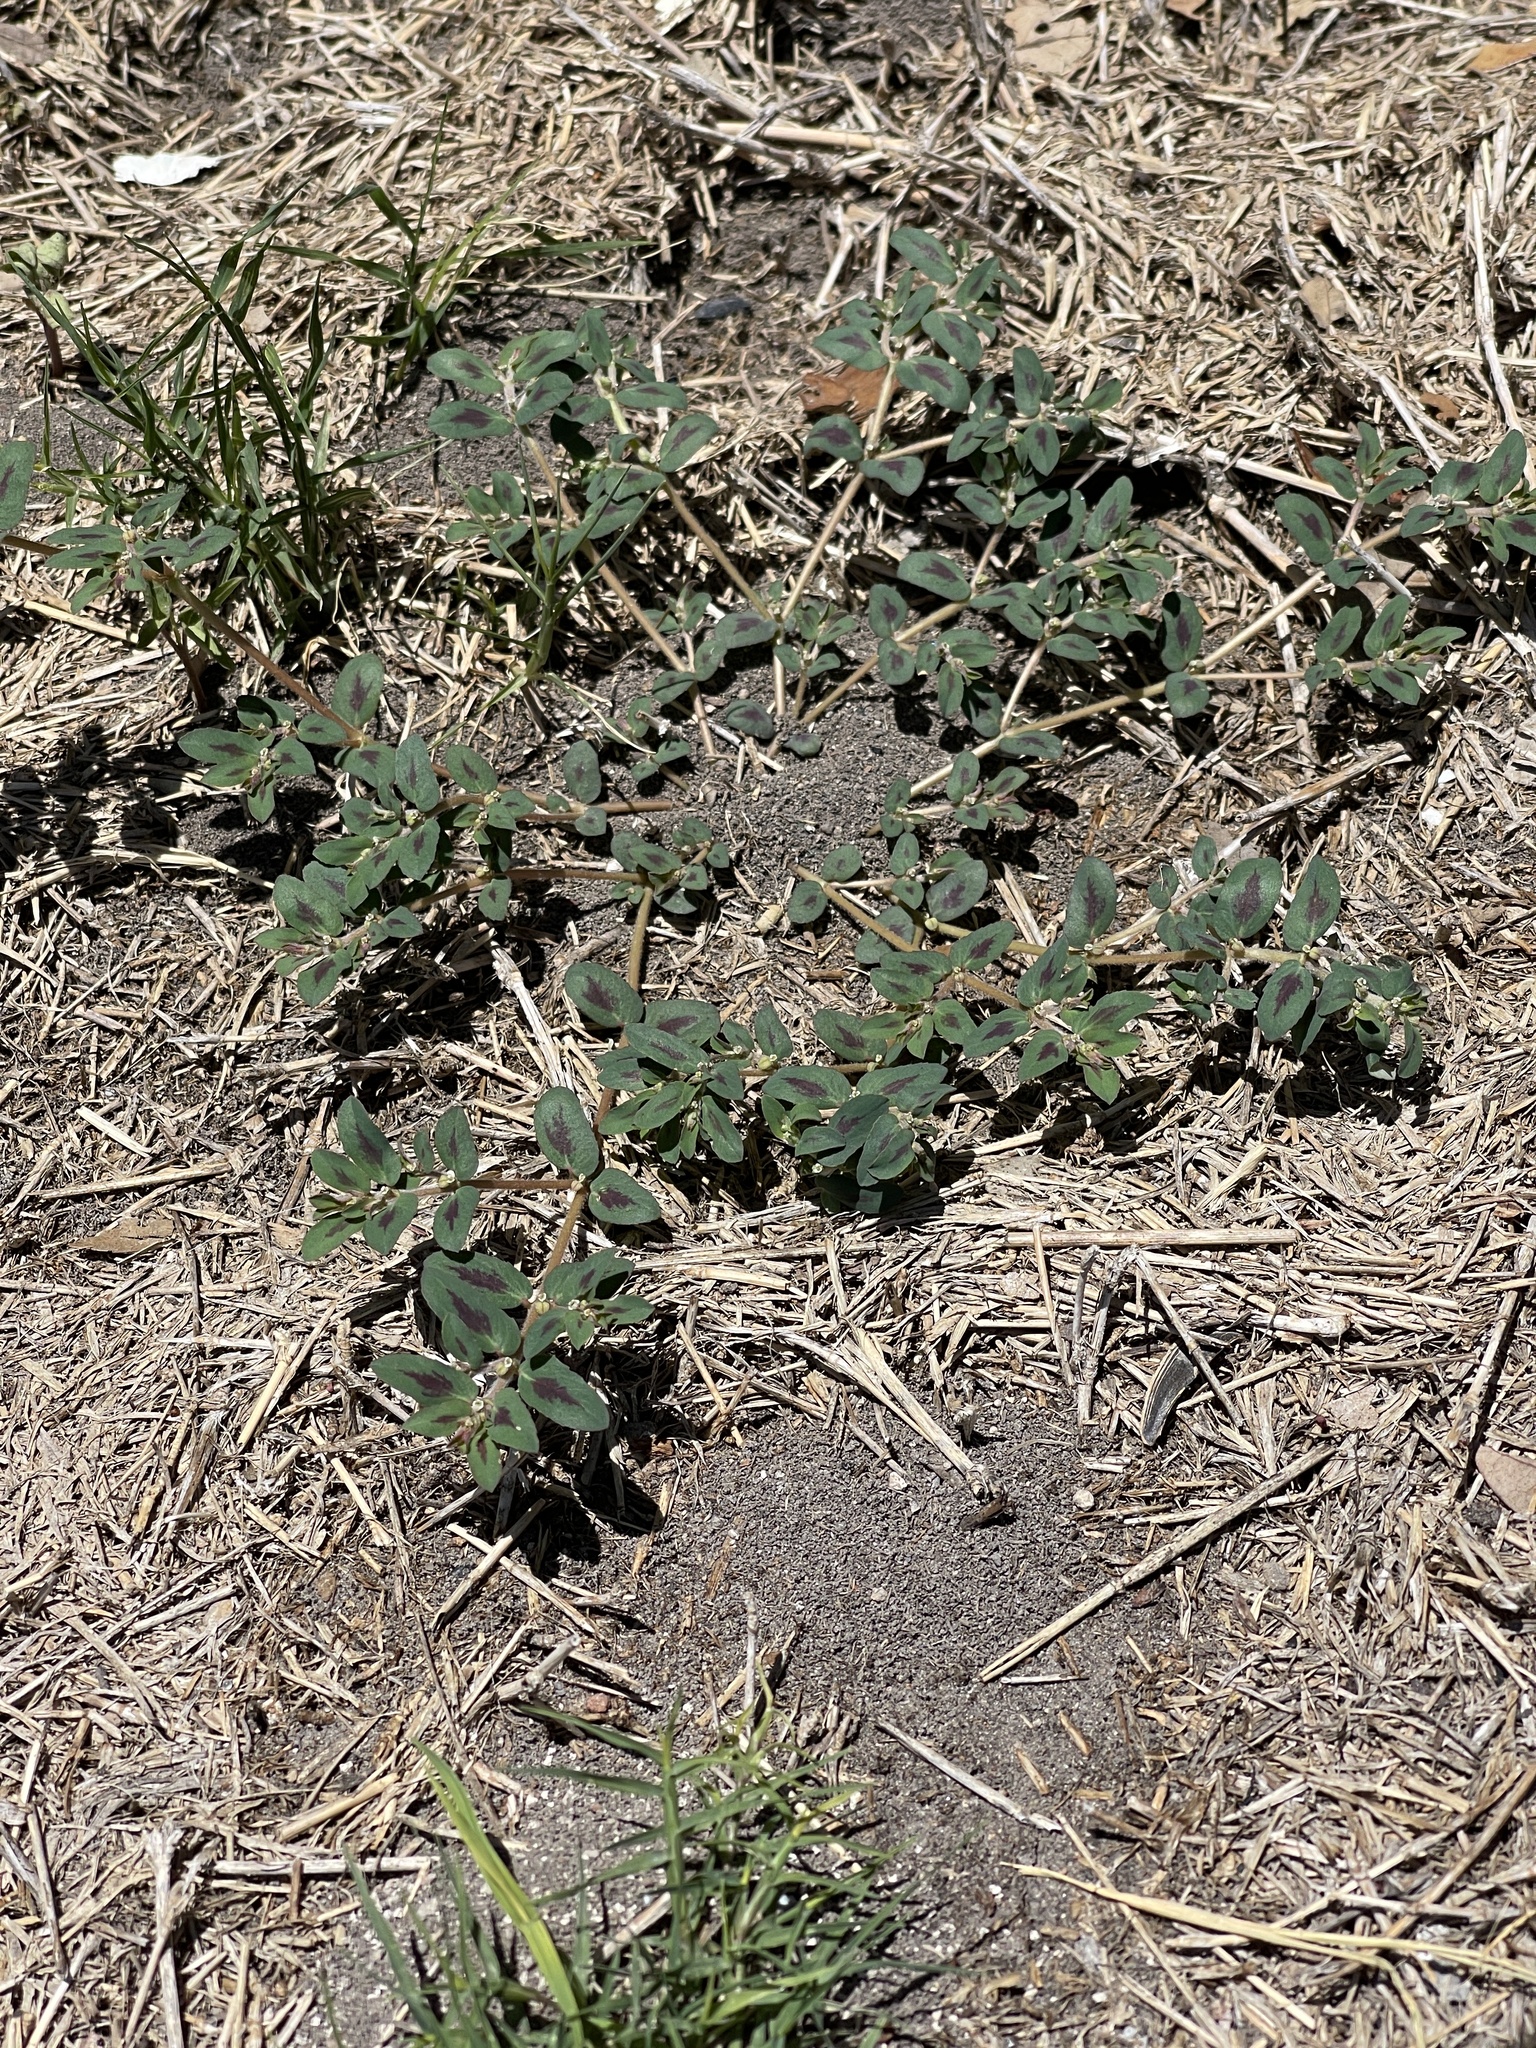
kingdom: Plantae
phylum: Tracheophyta
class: Magnoliopsida
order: Malpighiales
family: Euphorbiaceae
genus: Euphorbia
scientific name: Euphorbia maculata
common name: Spotted spurge
